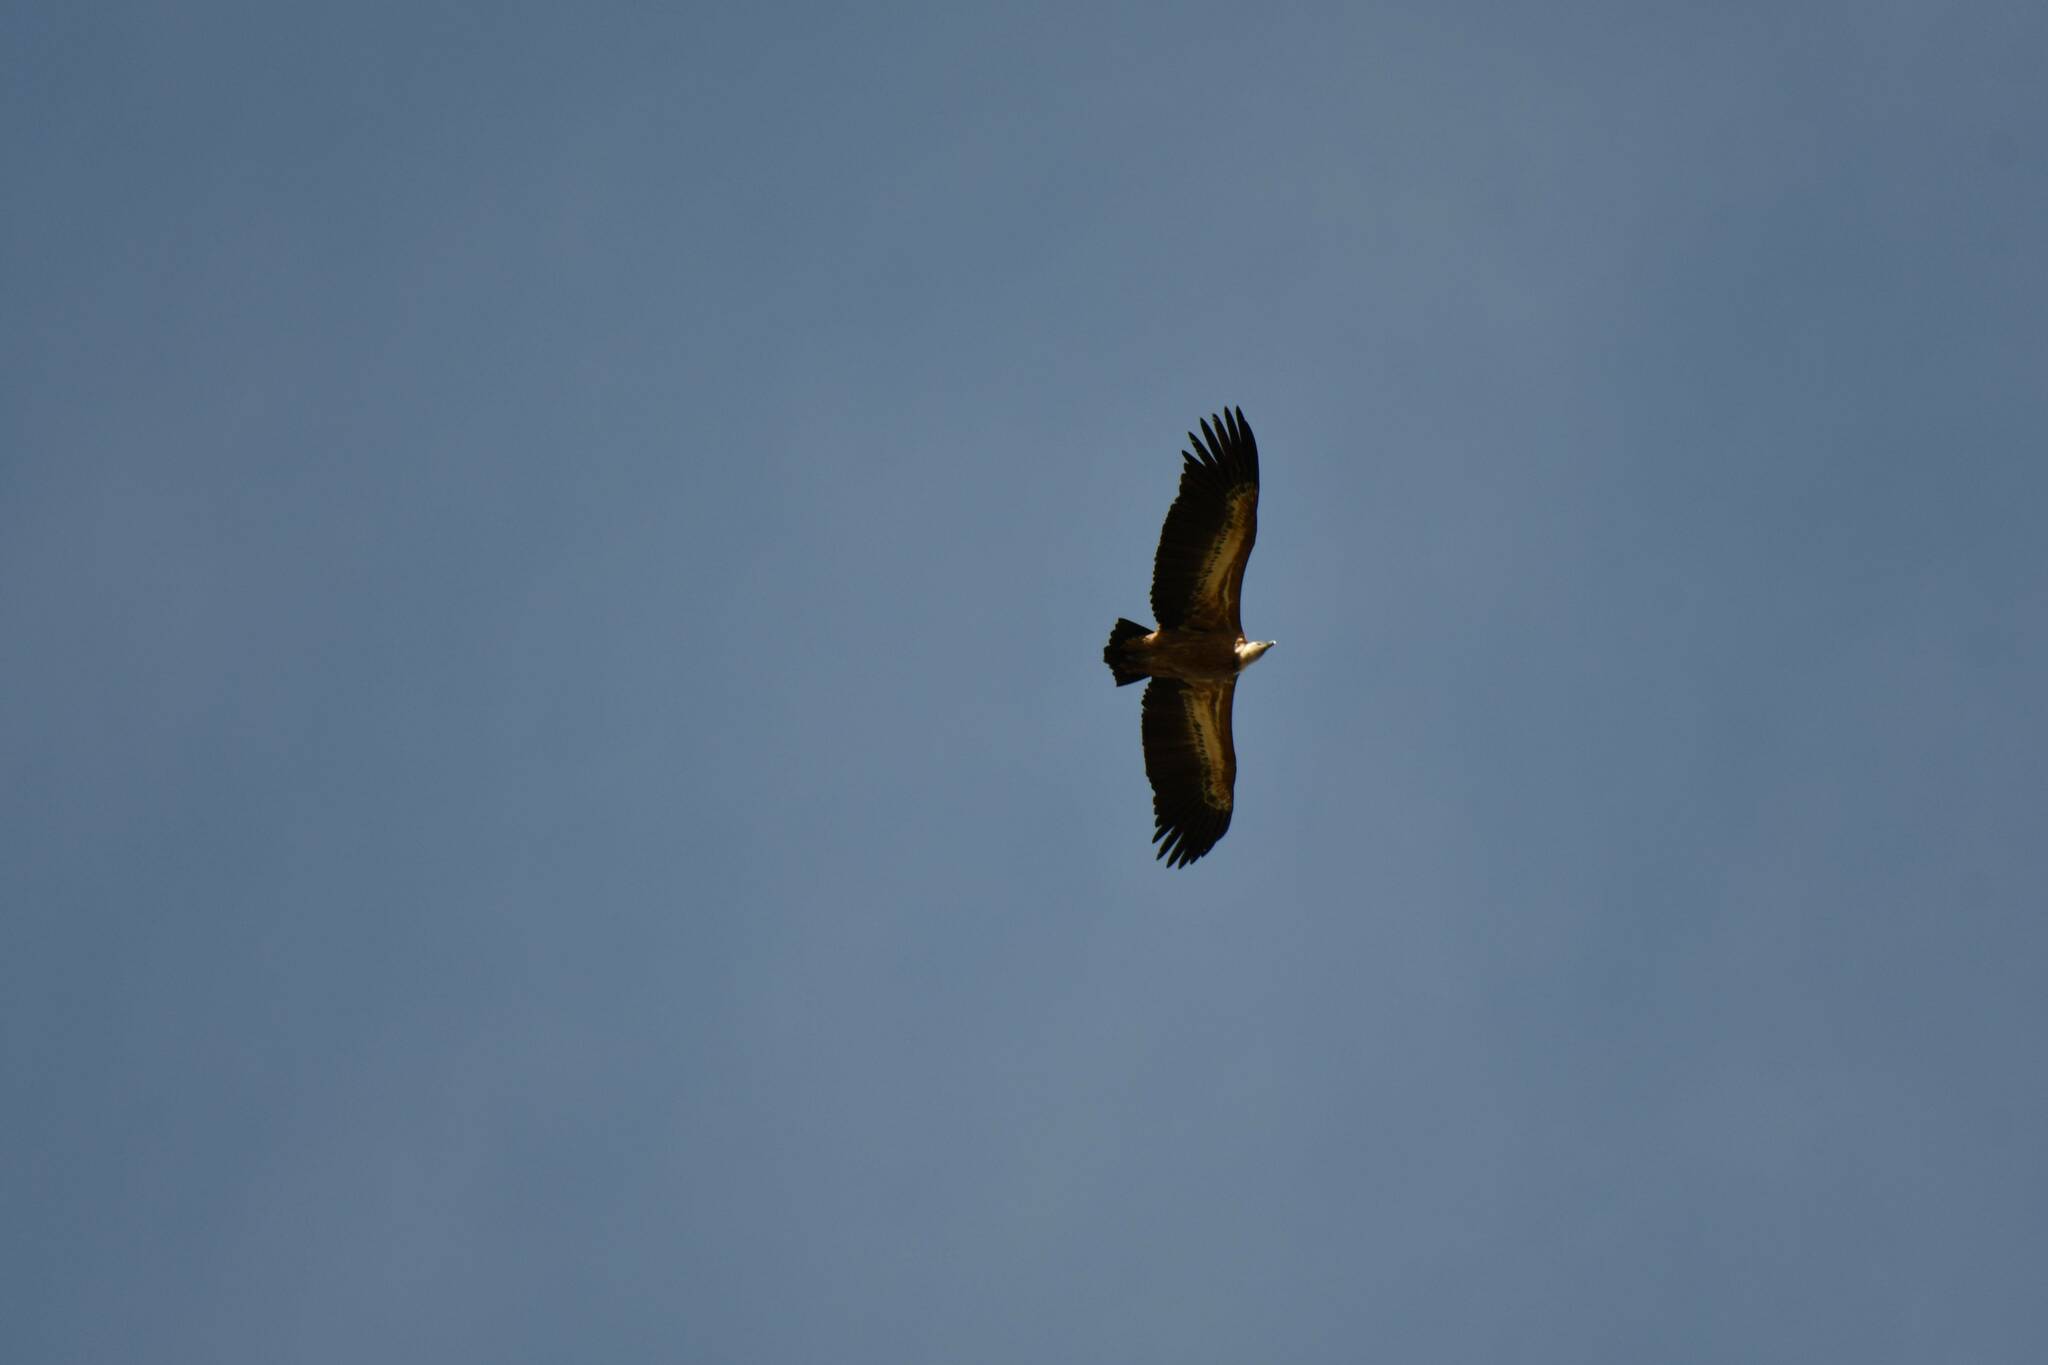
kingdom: Animalia
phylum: Chordata
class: Aves
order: Accipitriformes
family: Accipitridae
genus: Gyps
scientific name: Gyps fulvus
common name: Griffon vulture
